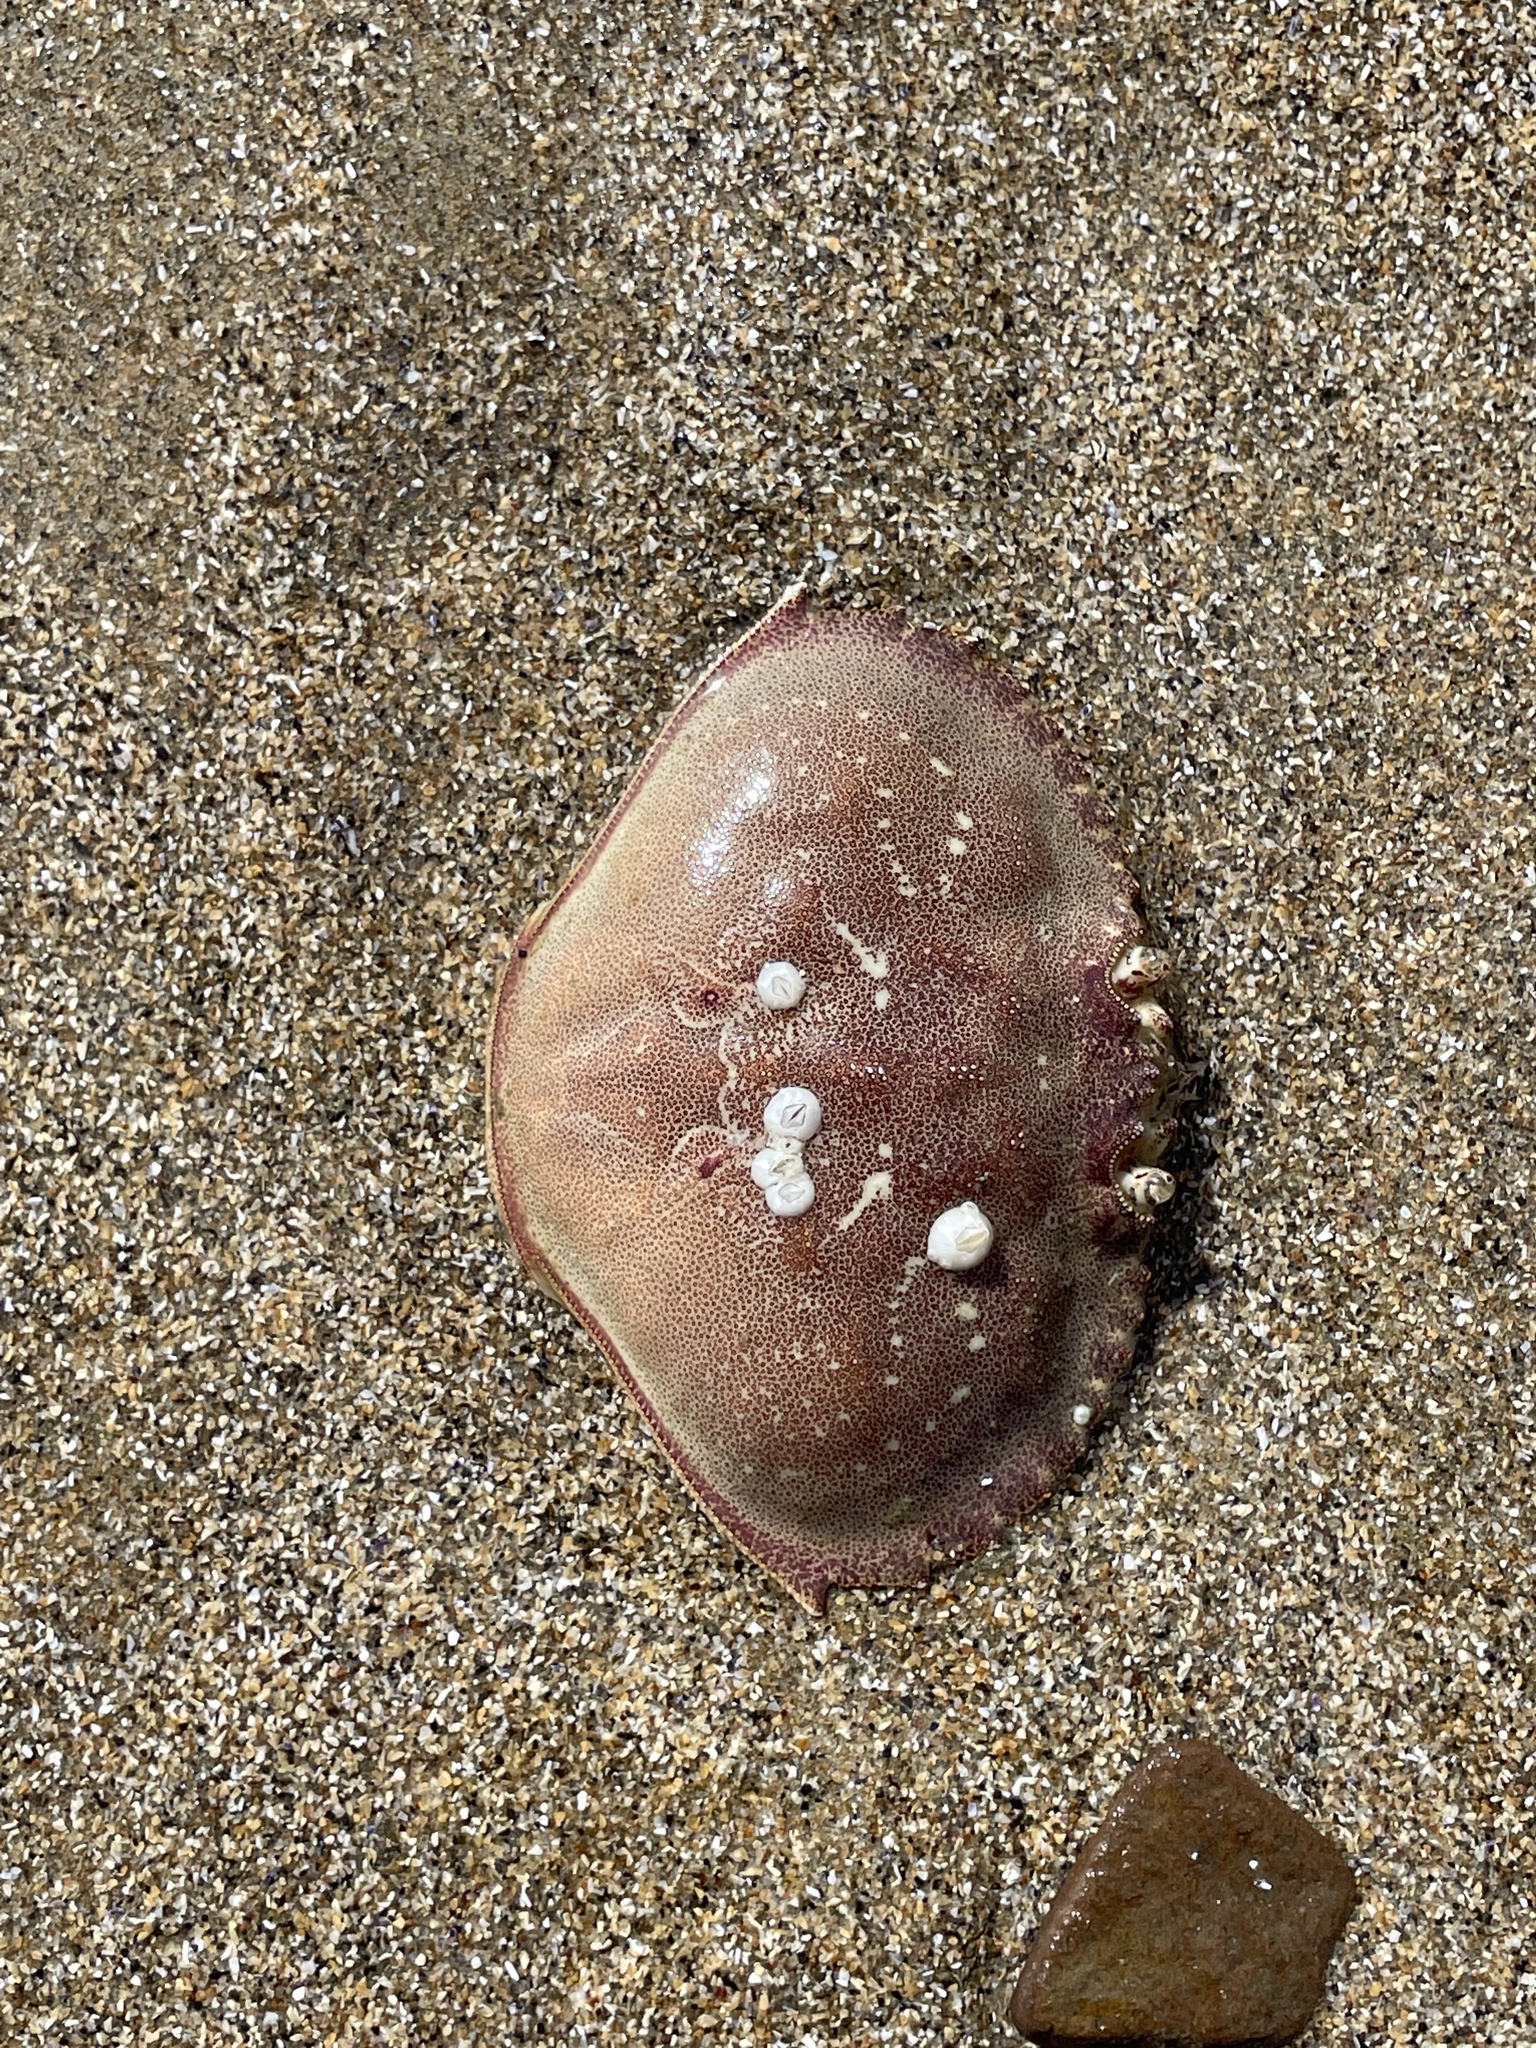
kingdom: Animalia
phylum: Arthropoda
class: Malacostraca
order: Decapoda
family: Cancridae
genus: Metacarcinus
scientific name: Metacarcinus magister
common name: Californian crab
